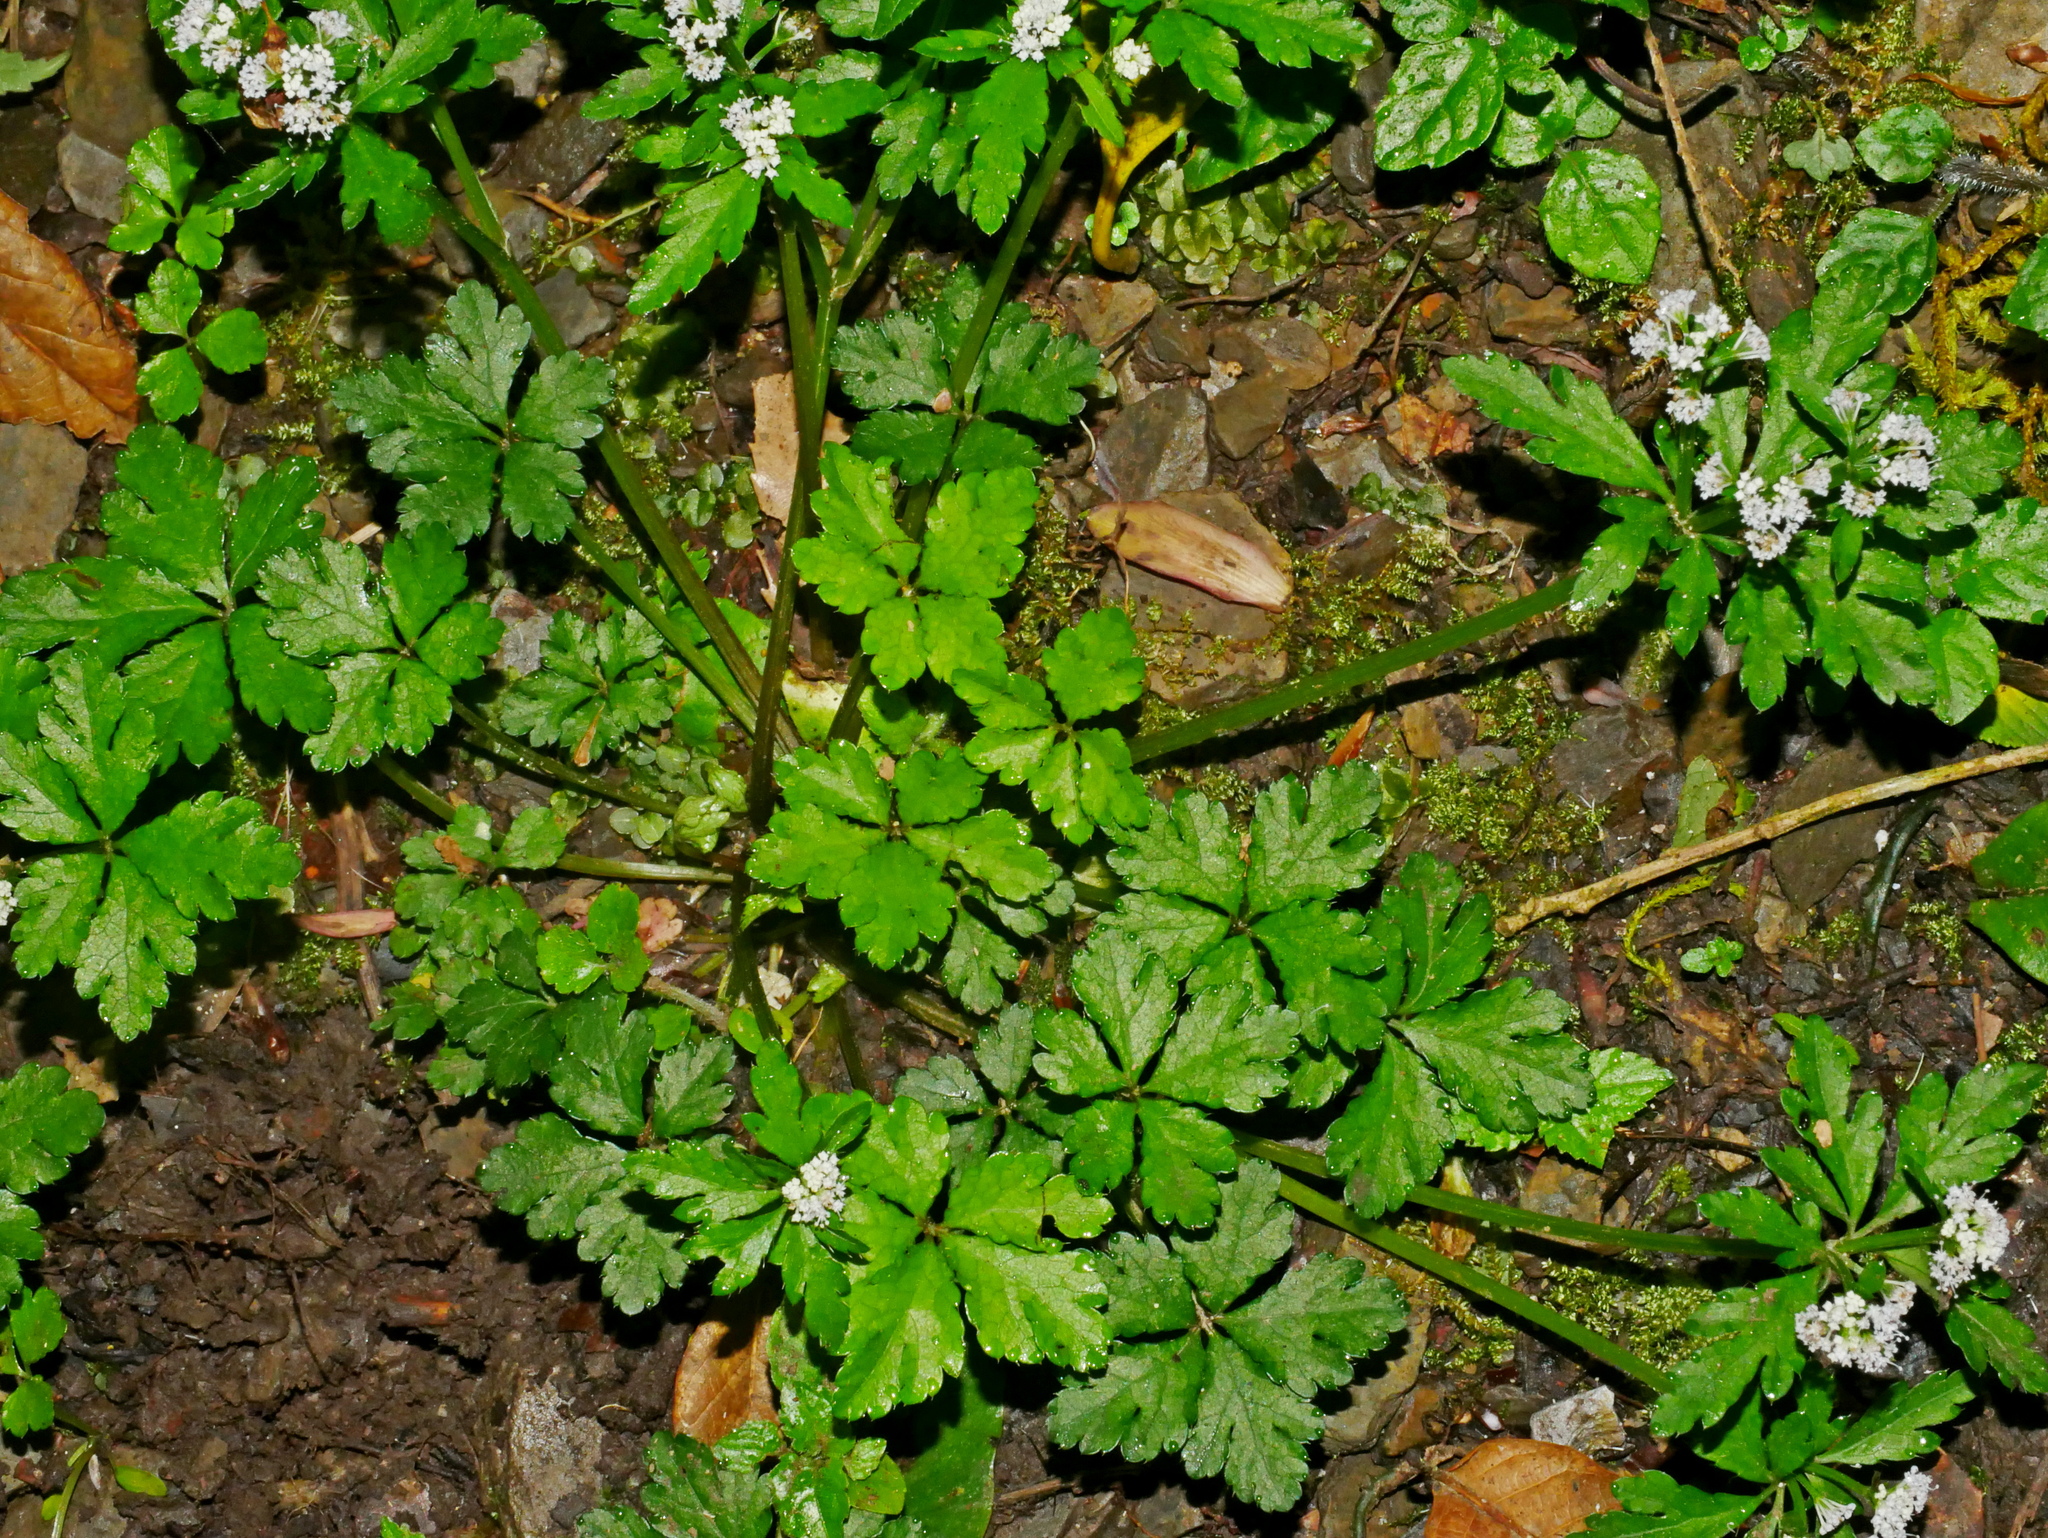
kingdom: Plantae
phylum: Tracheophyta
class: Magnoliopsida
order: Apiales
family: Apiaceae
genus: Sanicula
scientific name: Sanicula petagnioides
